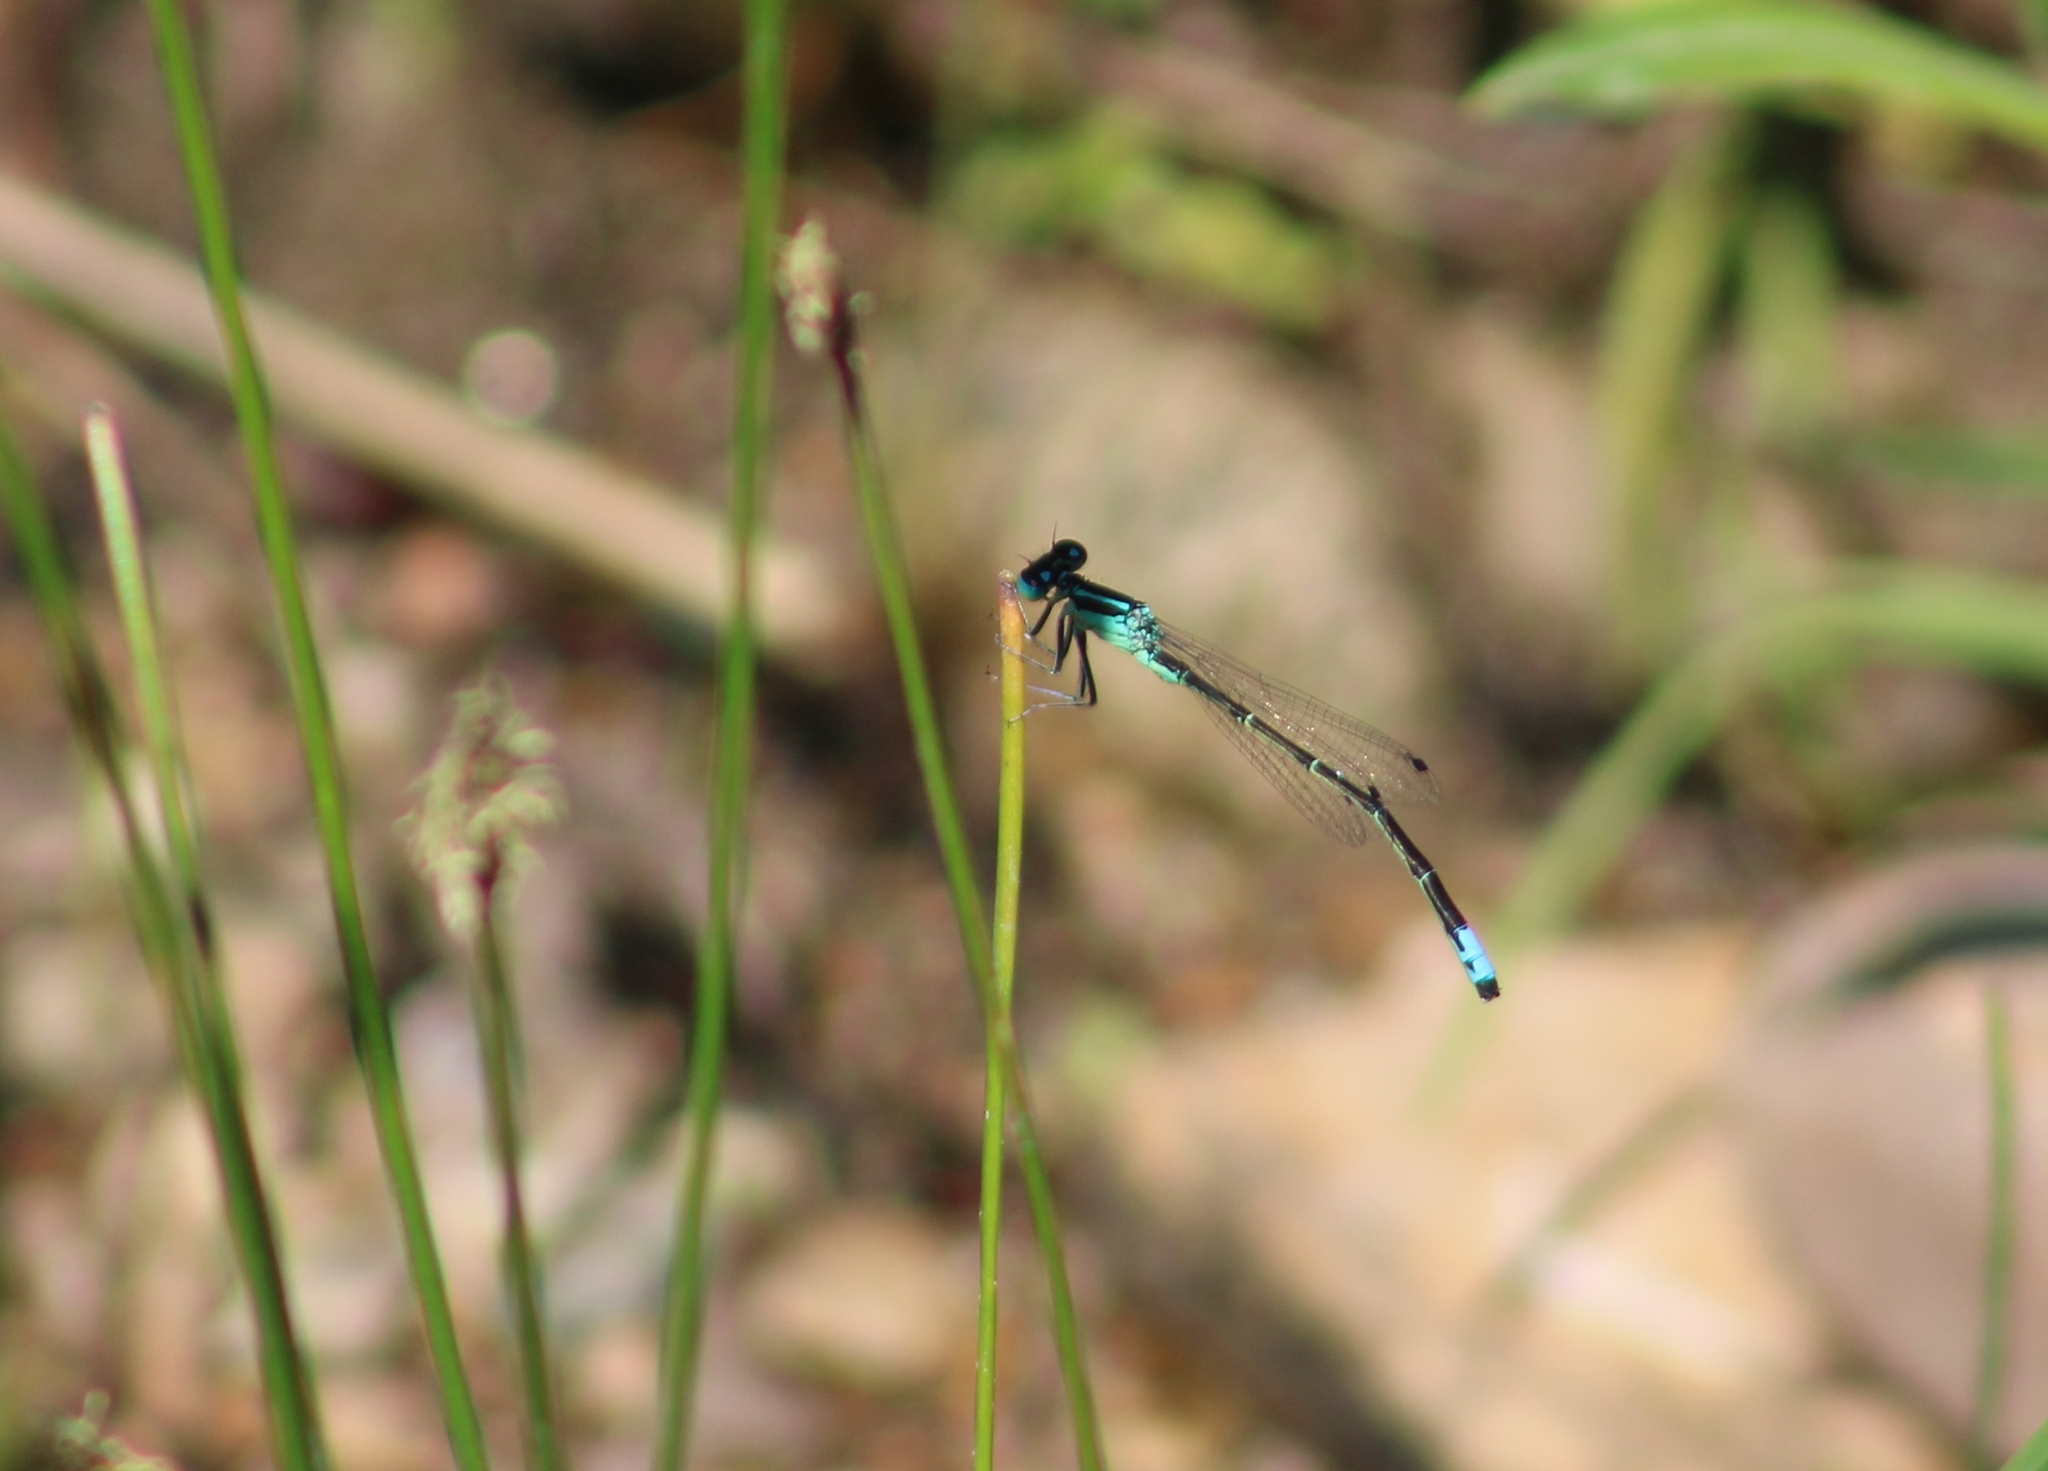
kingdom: Animalia
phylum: Arthropoda
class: Insecta
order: Odonata
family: Coenagrionidae
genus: Ischnura
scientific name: Ischnura perparva
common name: Western forktail
